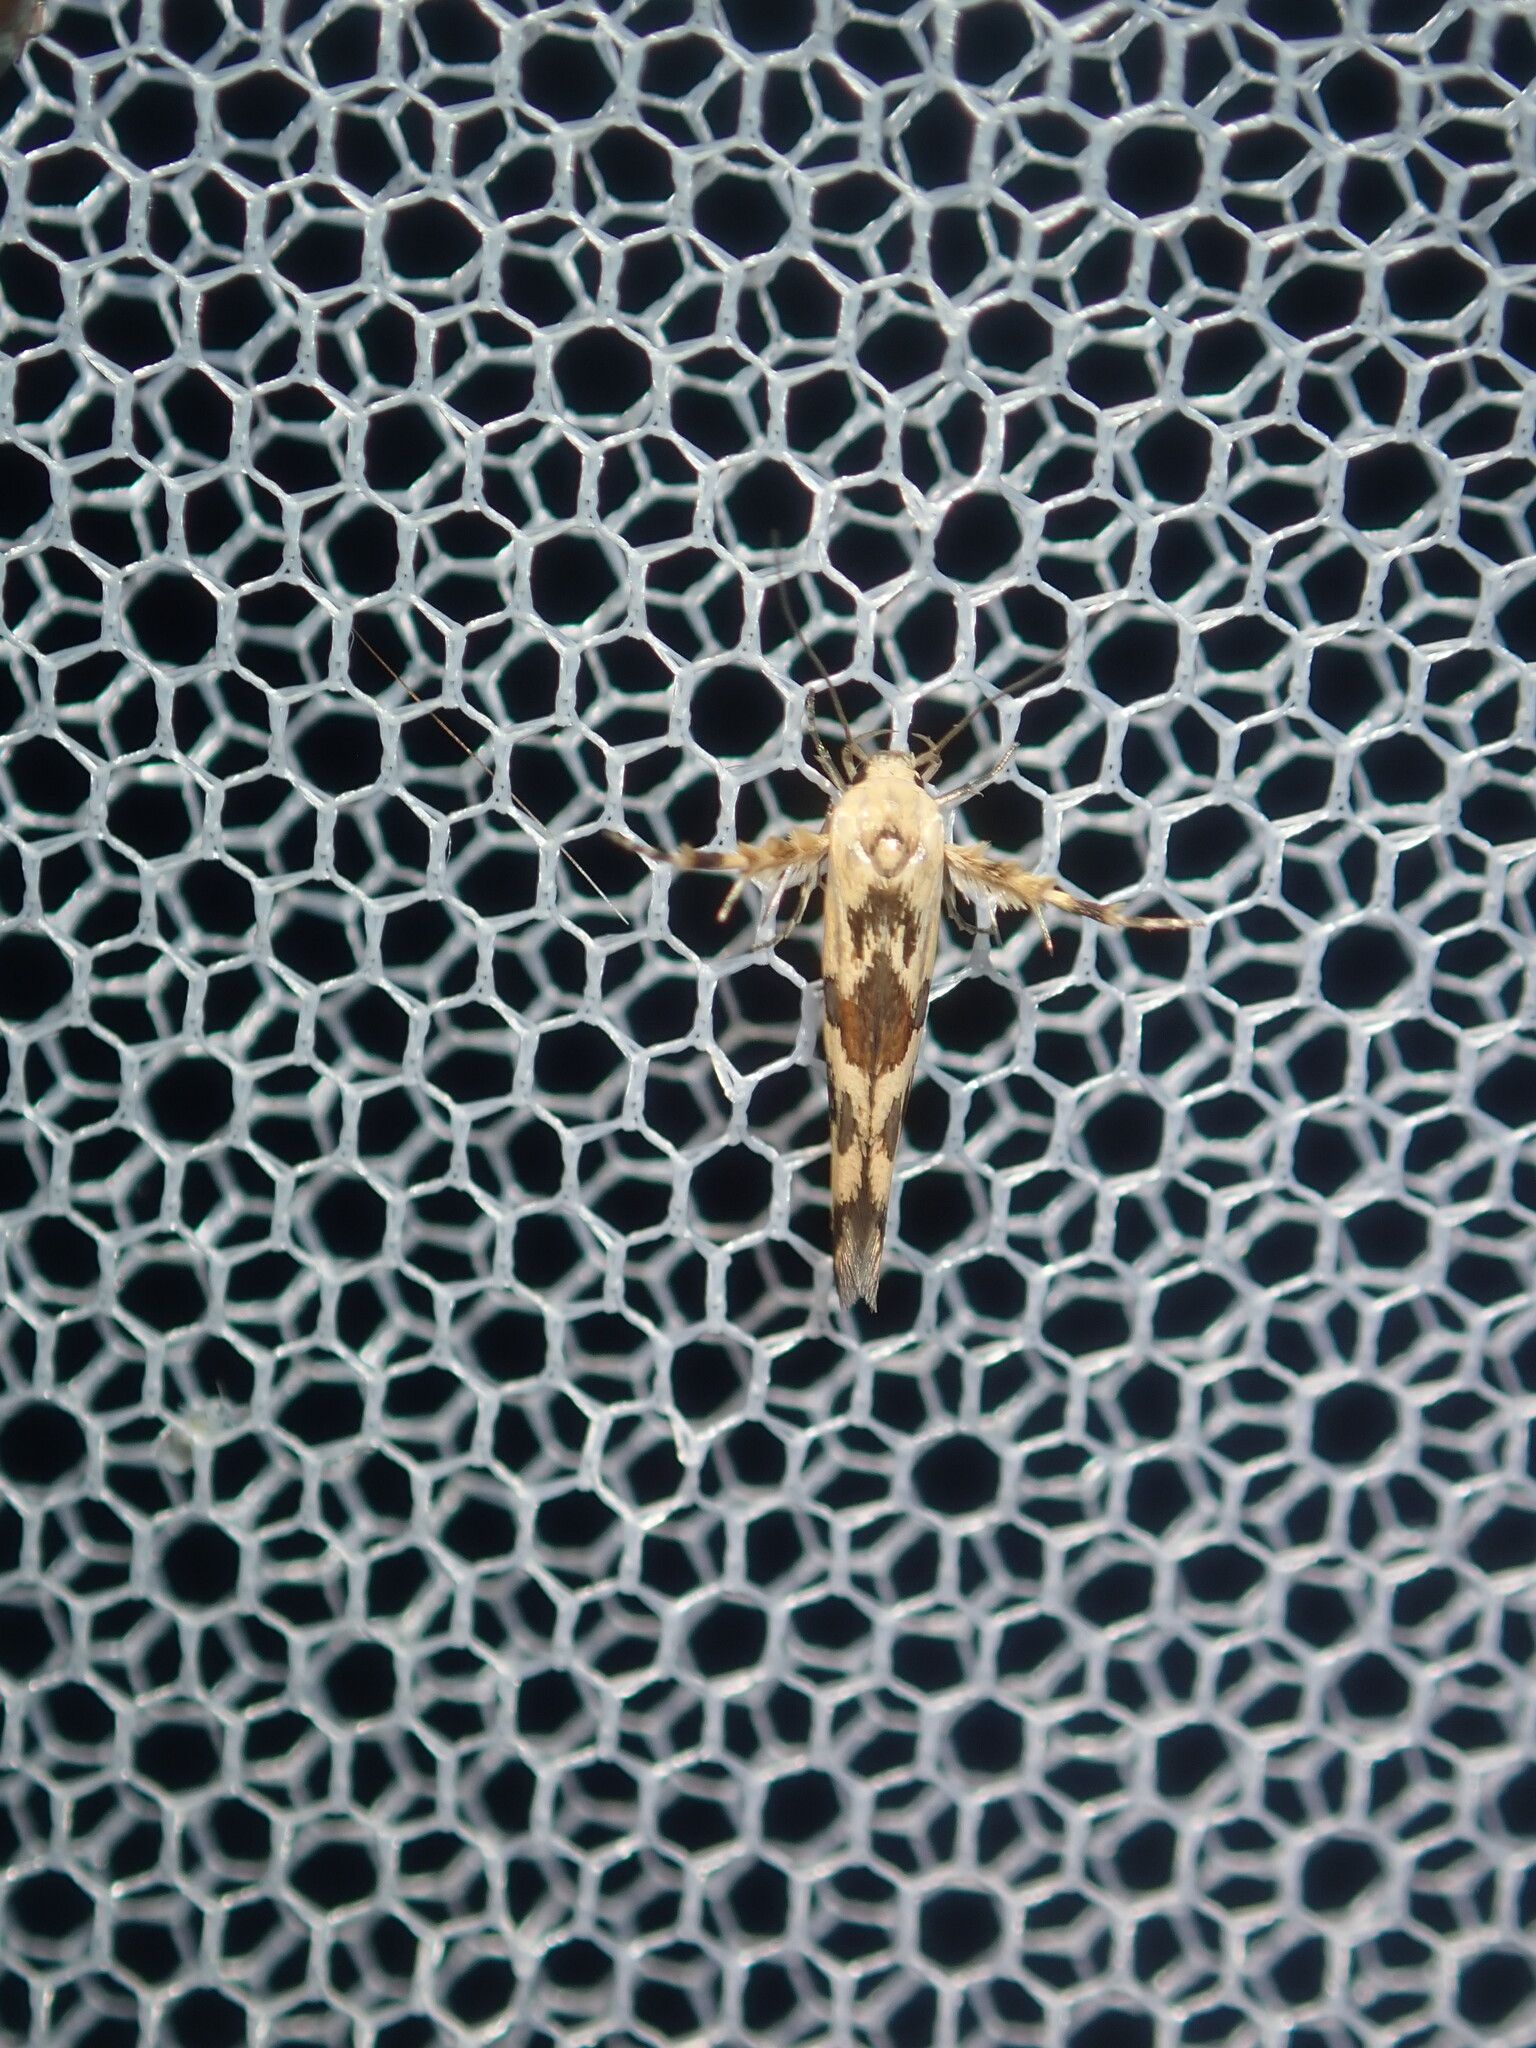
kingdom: Animalia
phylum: Arthropoda
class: Insecta
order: Lepidoptera
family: Stathmopodidae
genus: Stathmopoda
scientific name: Stathmopoda melanochra
